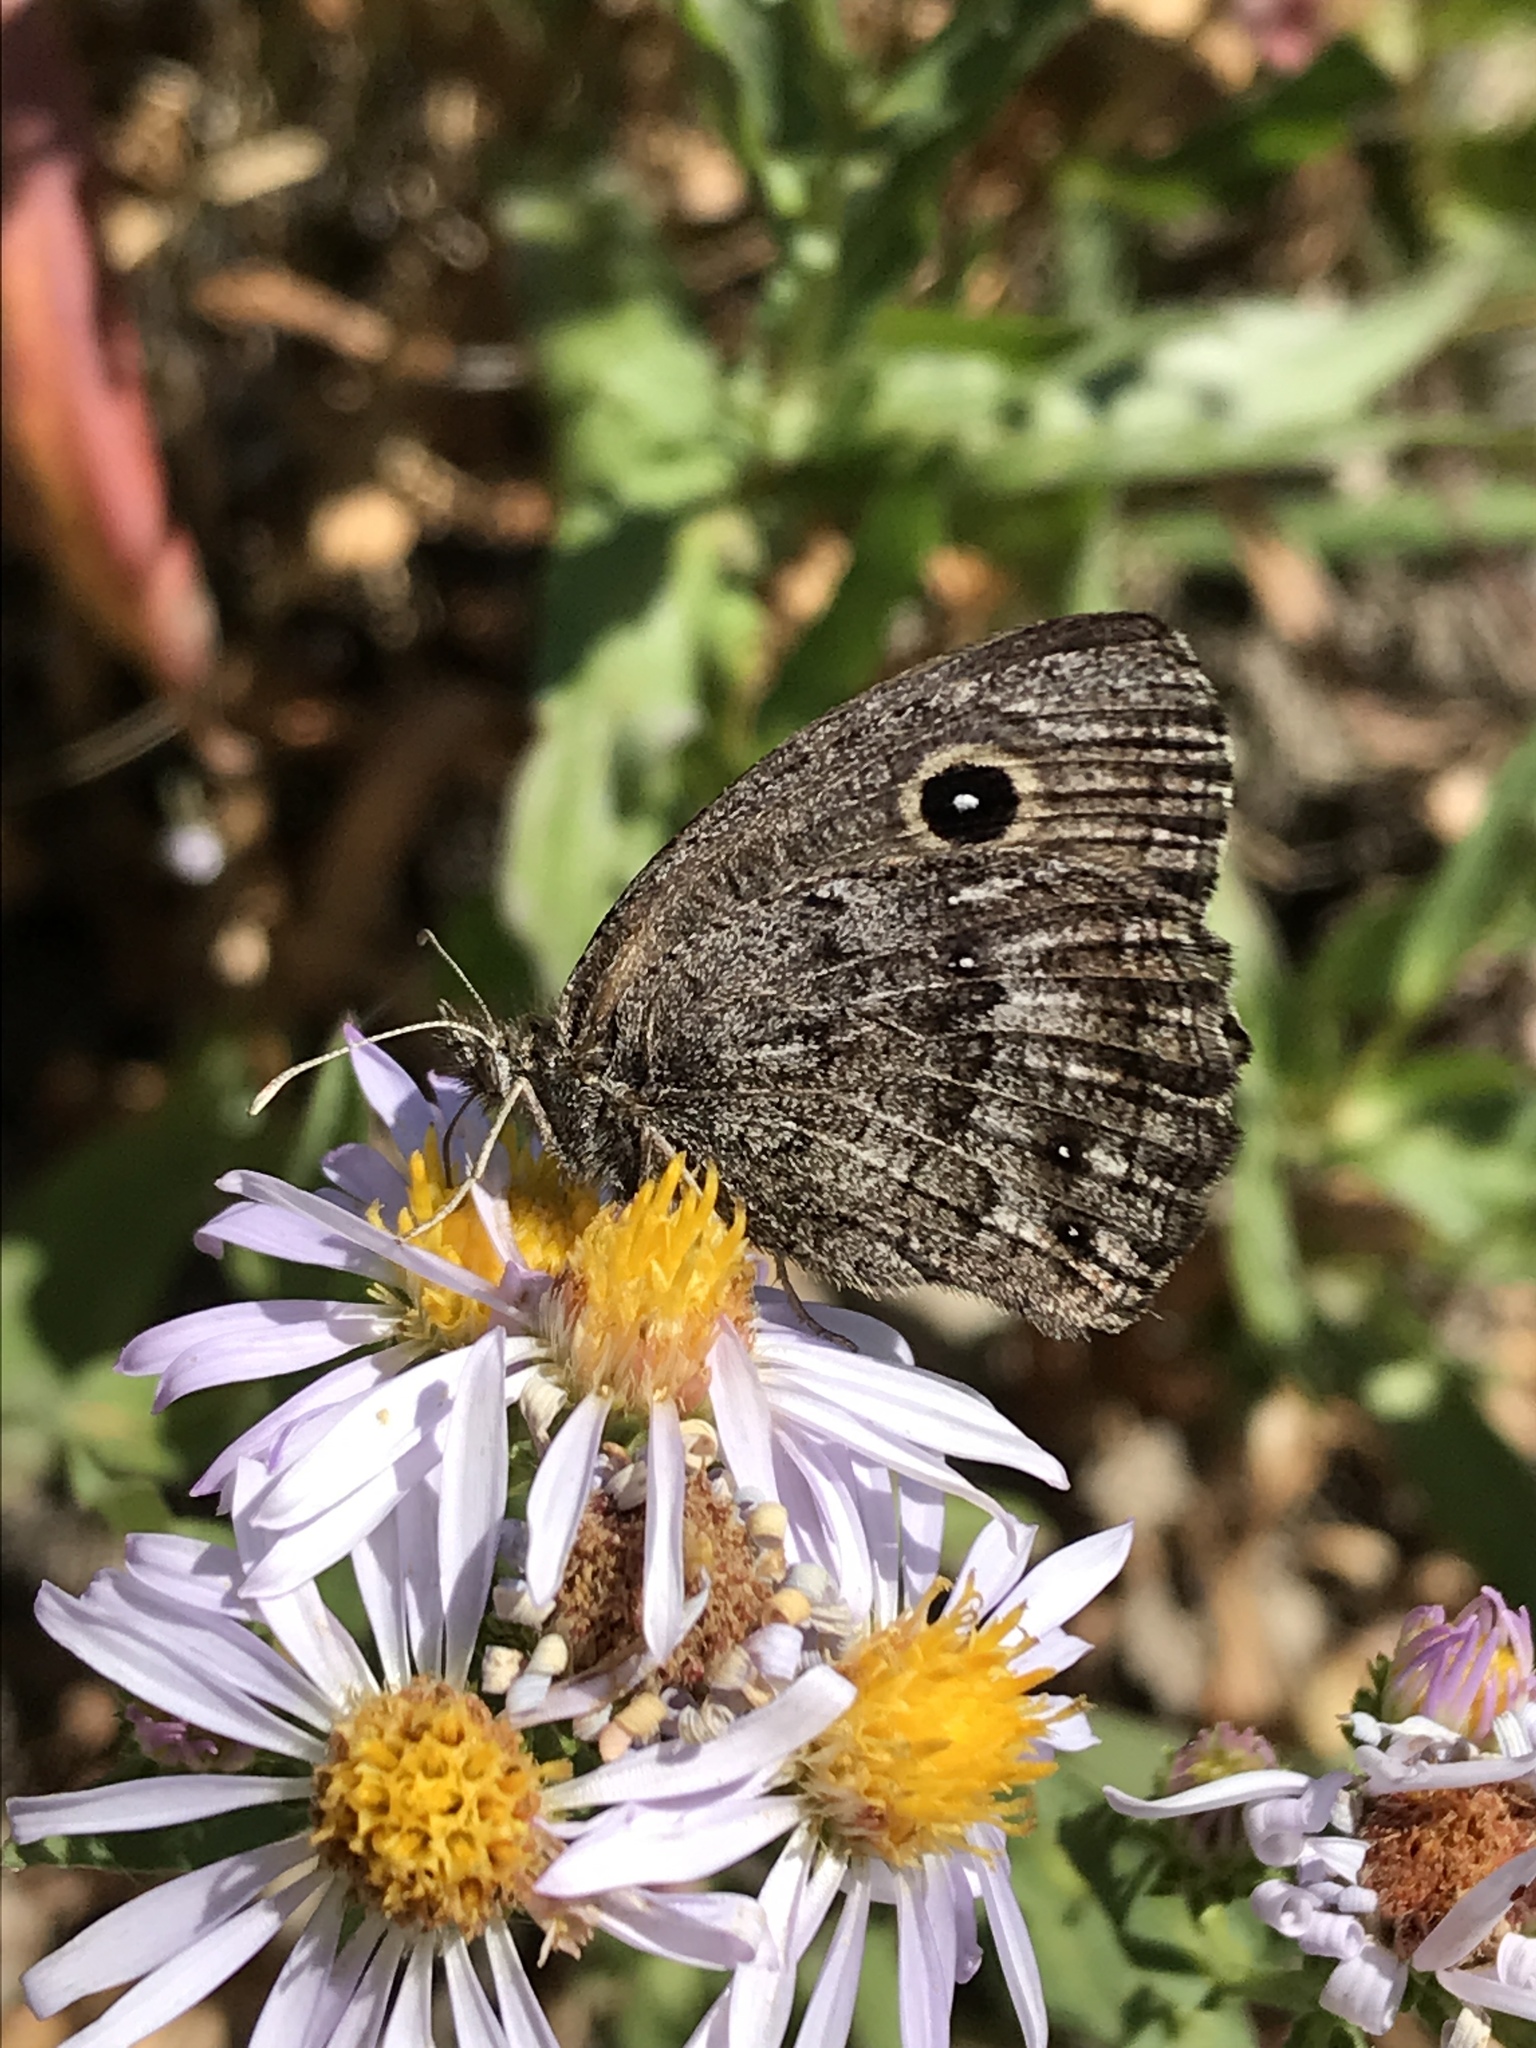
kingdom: Animalia
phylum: Arthropoda
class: Insecta
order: Lepidoptera
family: Nymphalidae
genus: Cercyonis
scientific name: Cercyonis oetus
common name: Small wood-nymph
